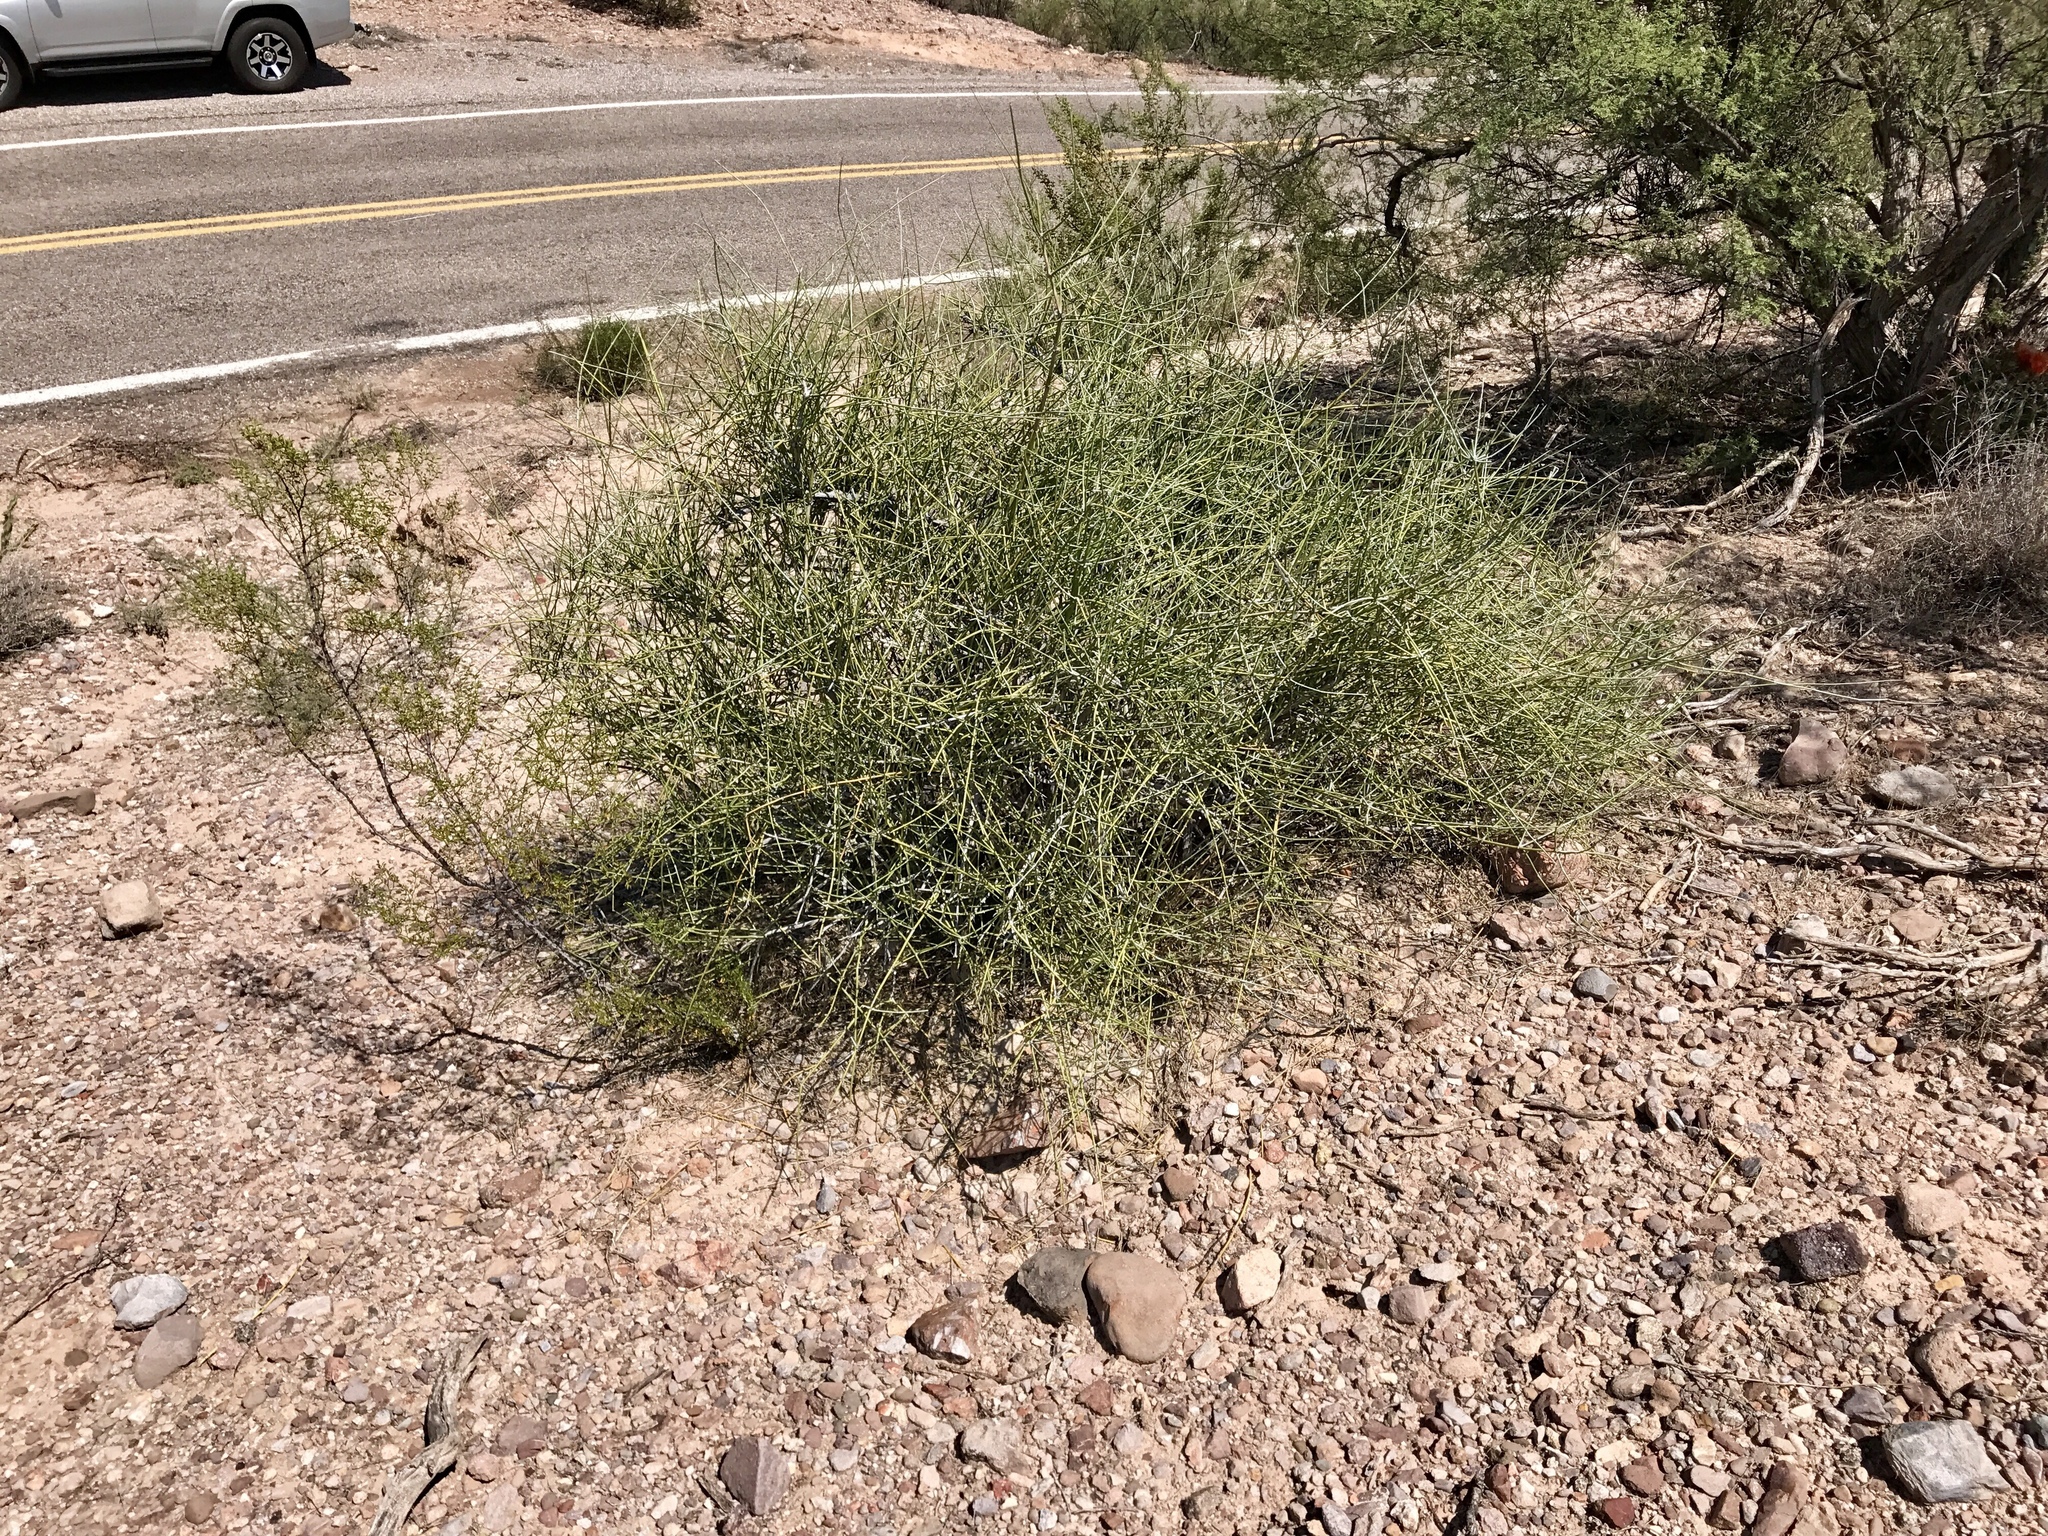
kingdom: Plantae
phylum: Tracheophyta
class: Gnetopsida
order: Ephedrales
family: Ephedraceae
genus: Ephedra
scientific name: Ephedra trifurca
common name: Mexican-tea
